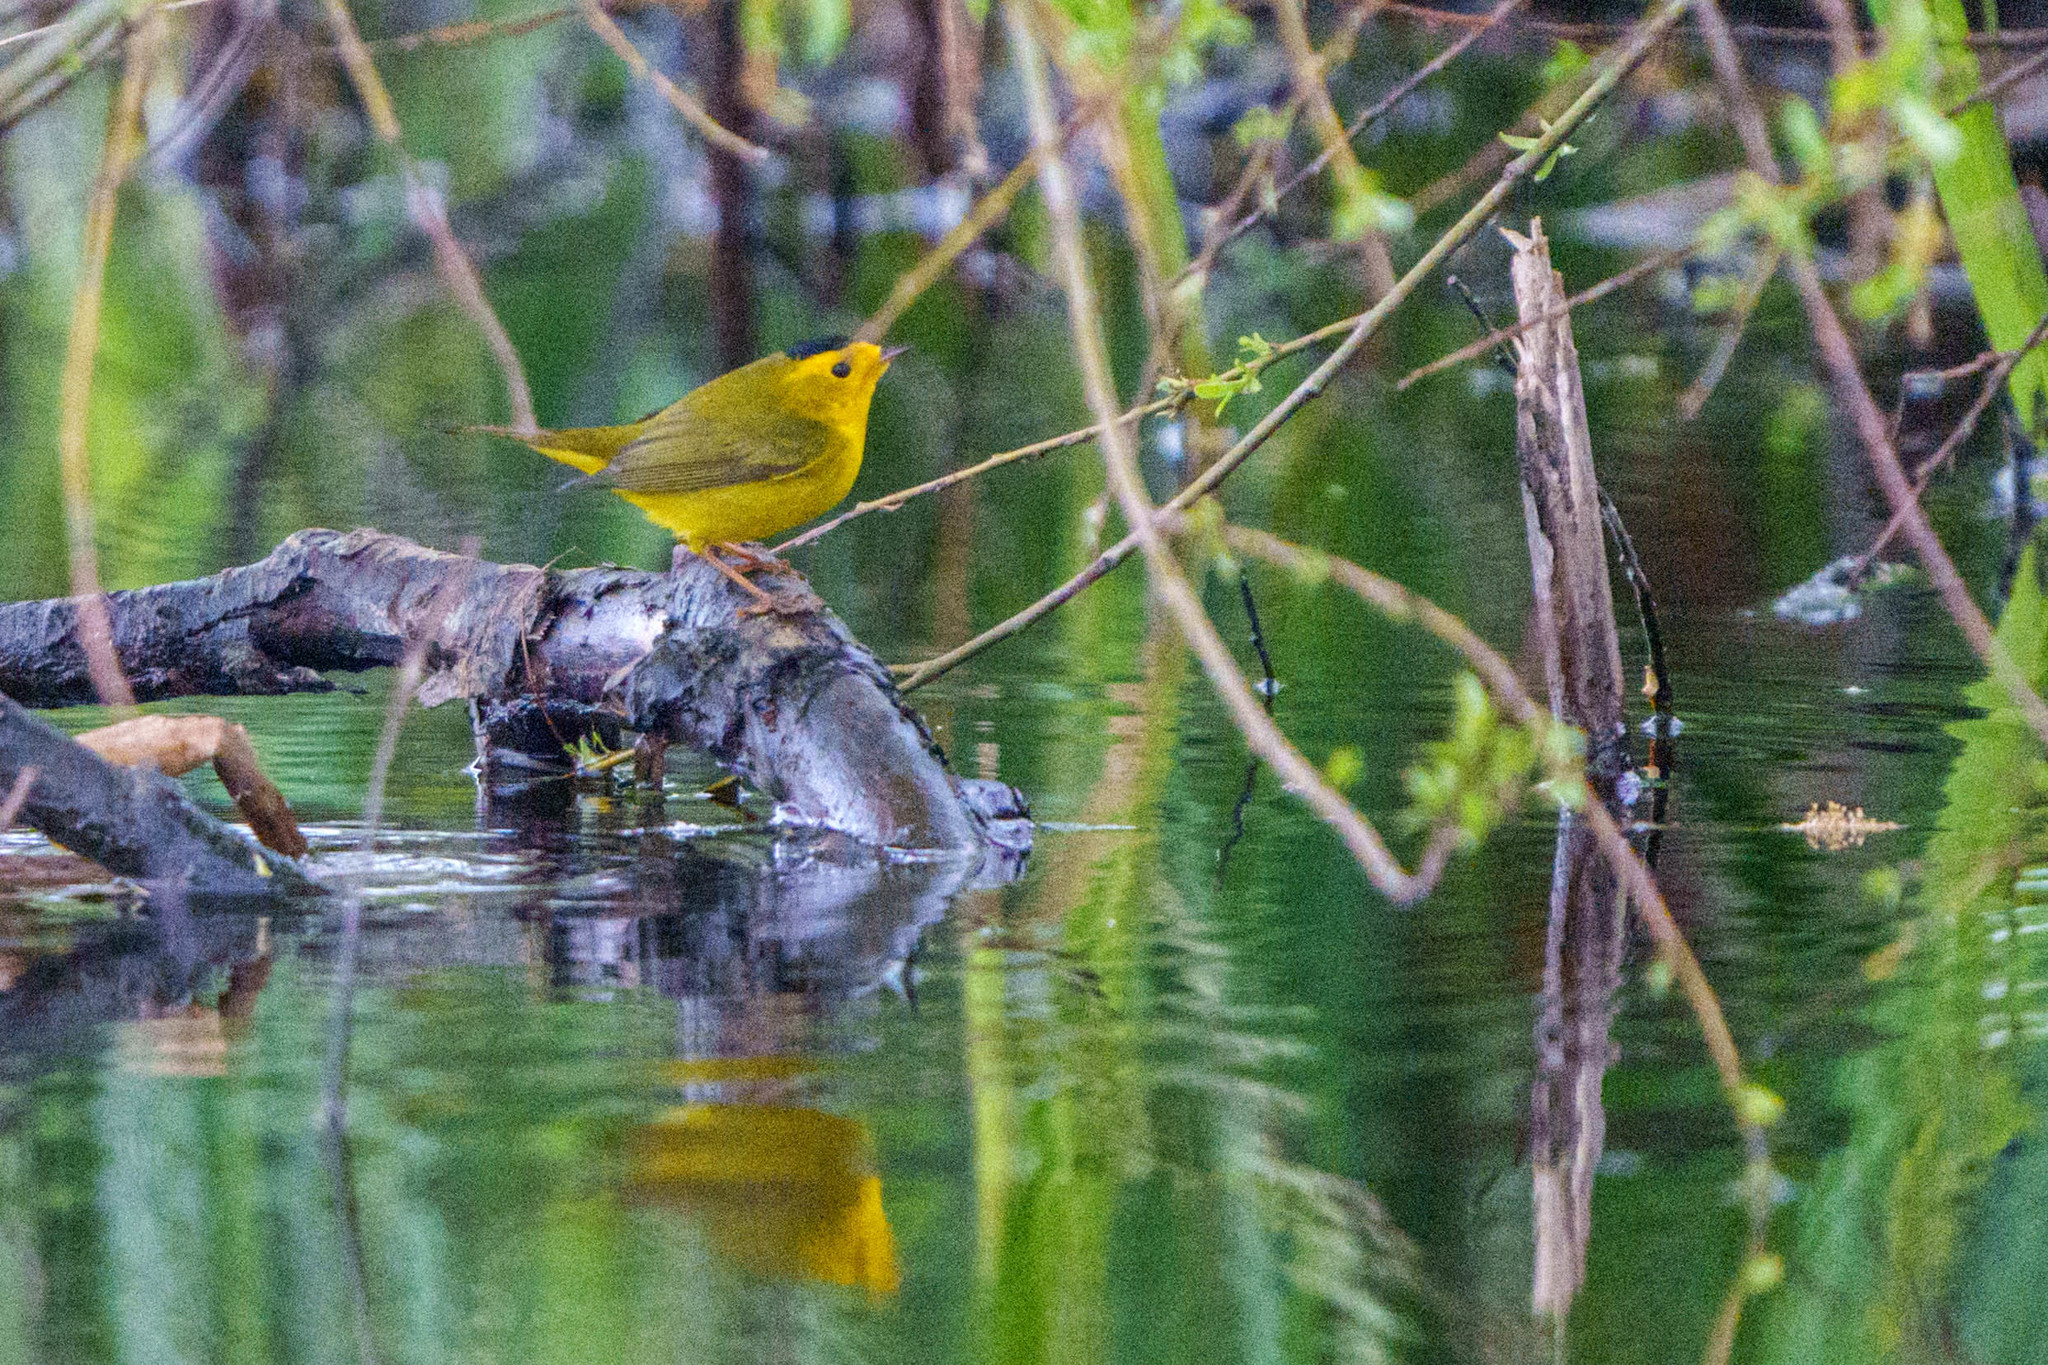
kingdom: Animalia
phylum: Chordata
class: Aves
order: Passeriformes
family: Parulidae
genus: Cardellina
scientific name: Cardellina pusilla
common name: Wilson's warbler
